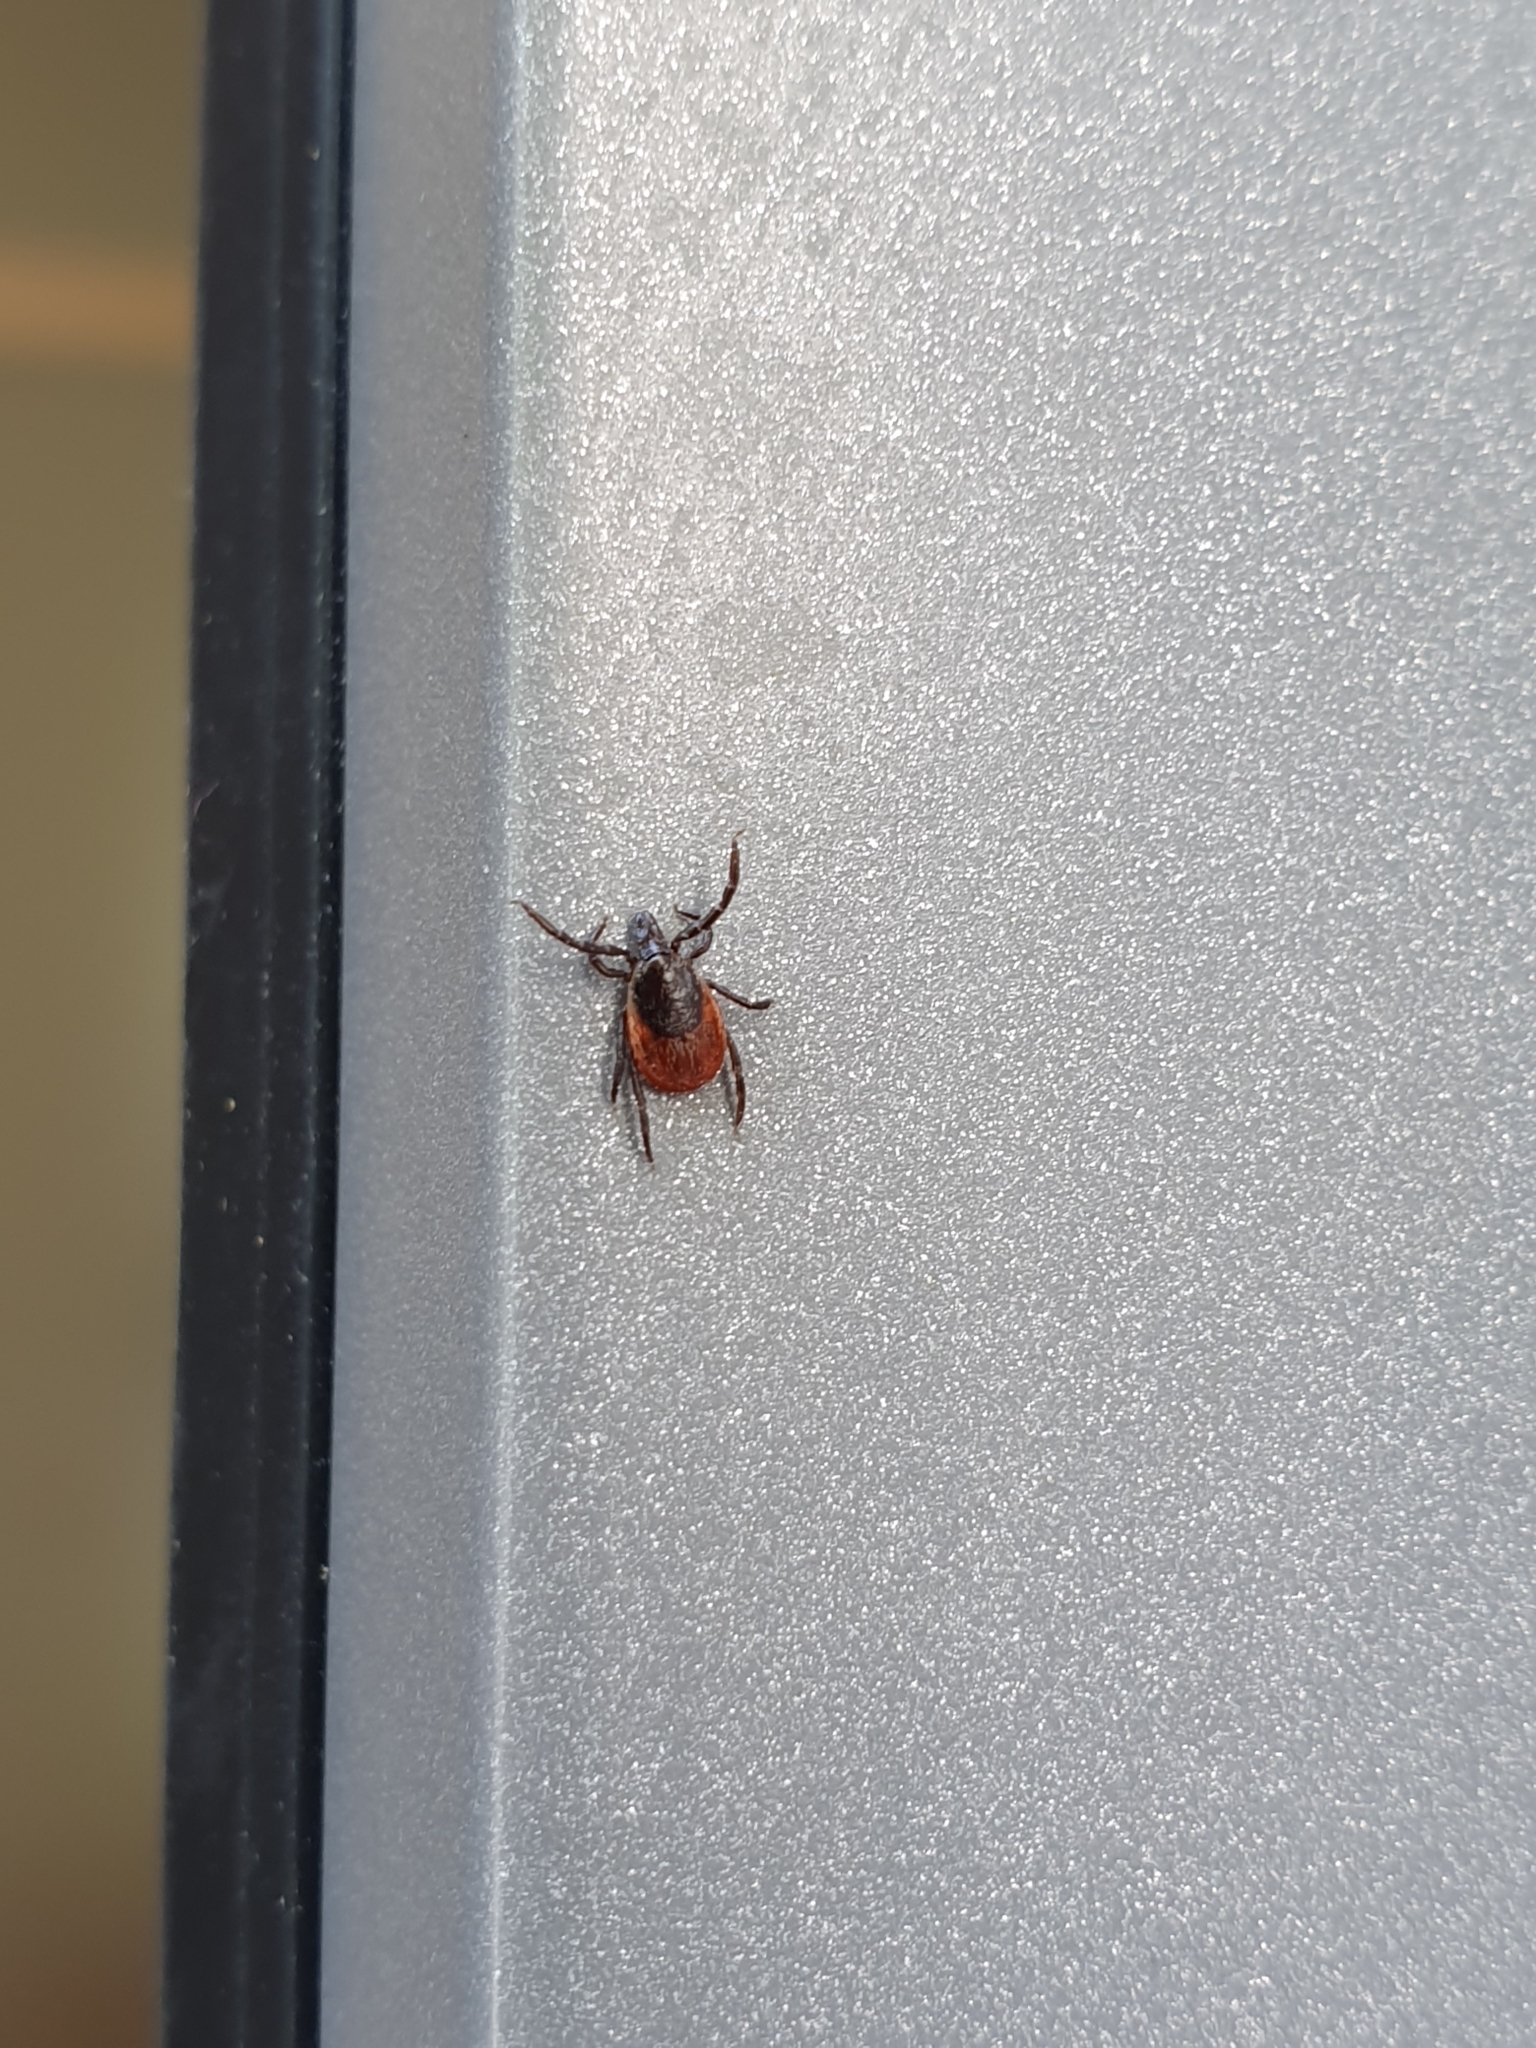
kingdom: Animalia
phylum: Arthropoda
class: Arachnida
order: Ixodida
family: Ixodidae
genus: Ixodes
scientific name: Ixodes ricinus
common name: Castor bean tick
